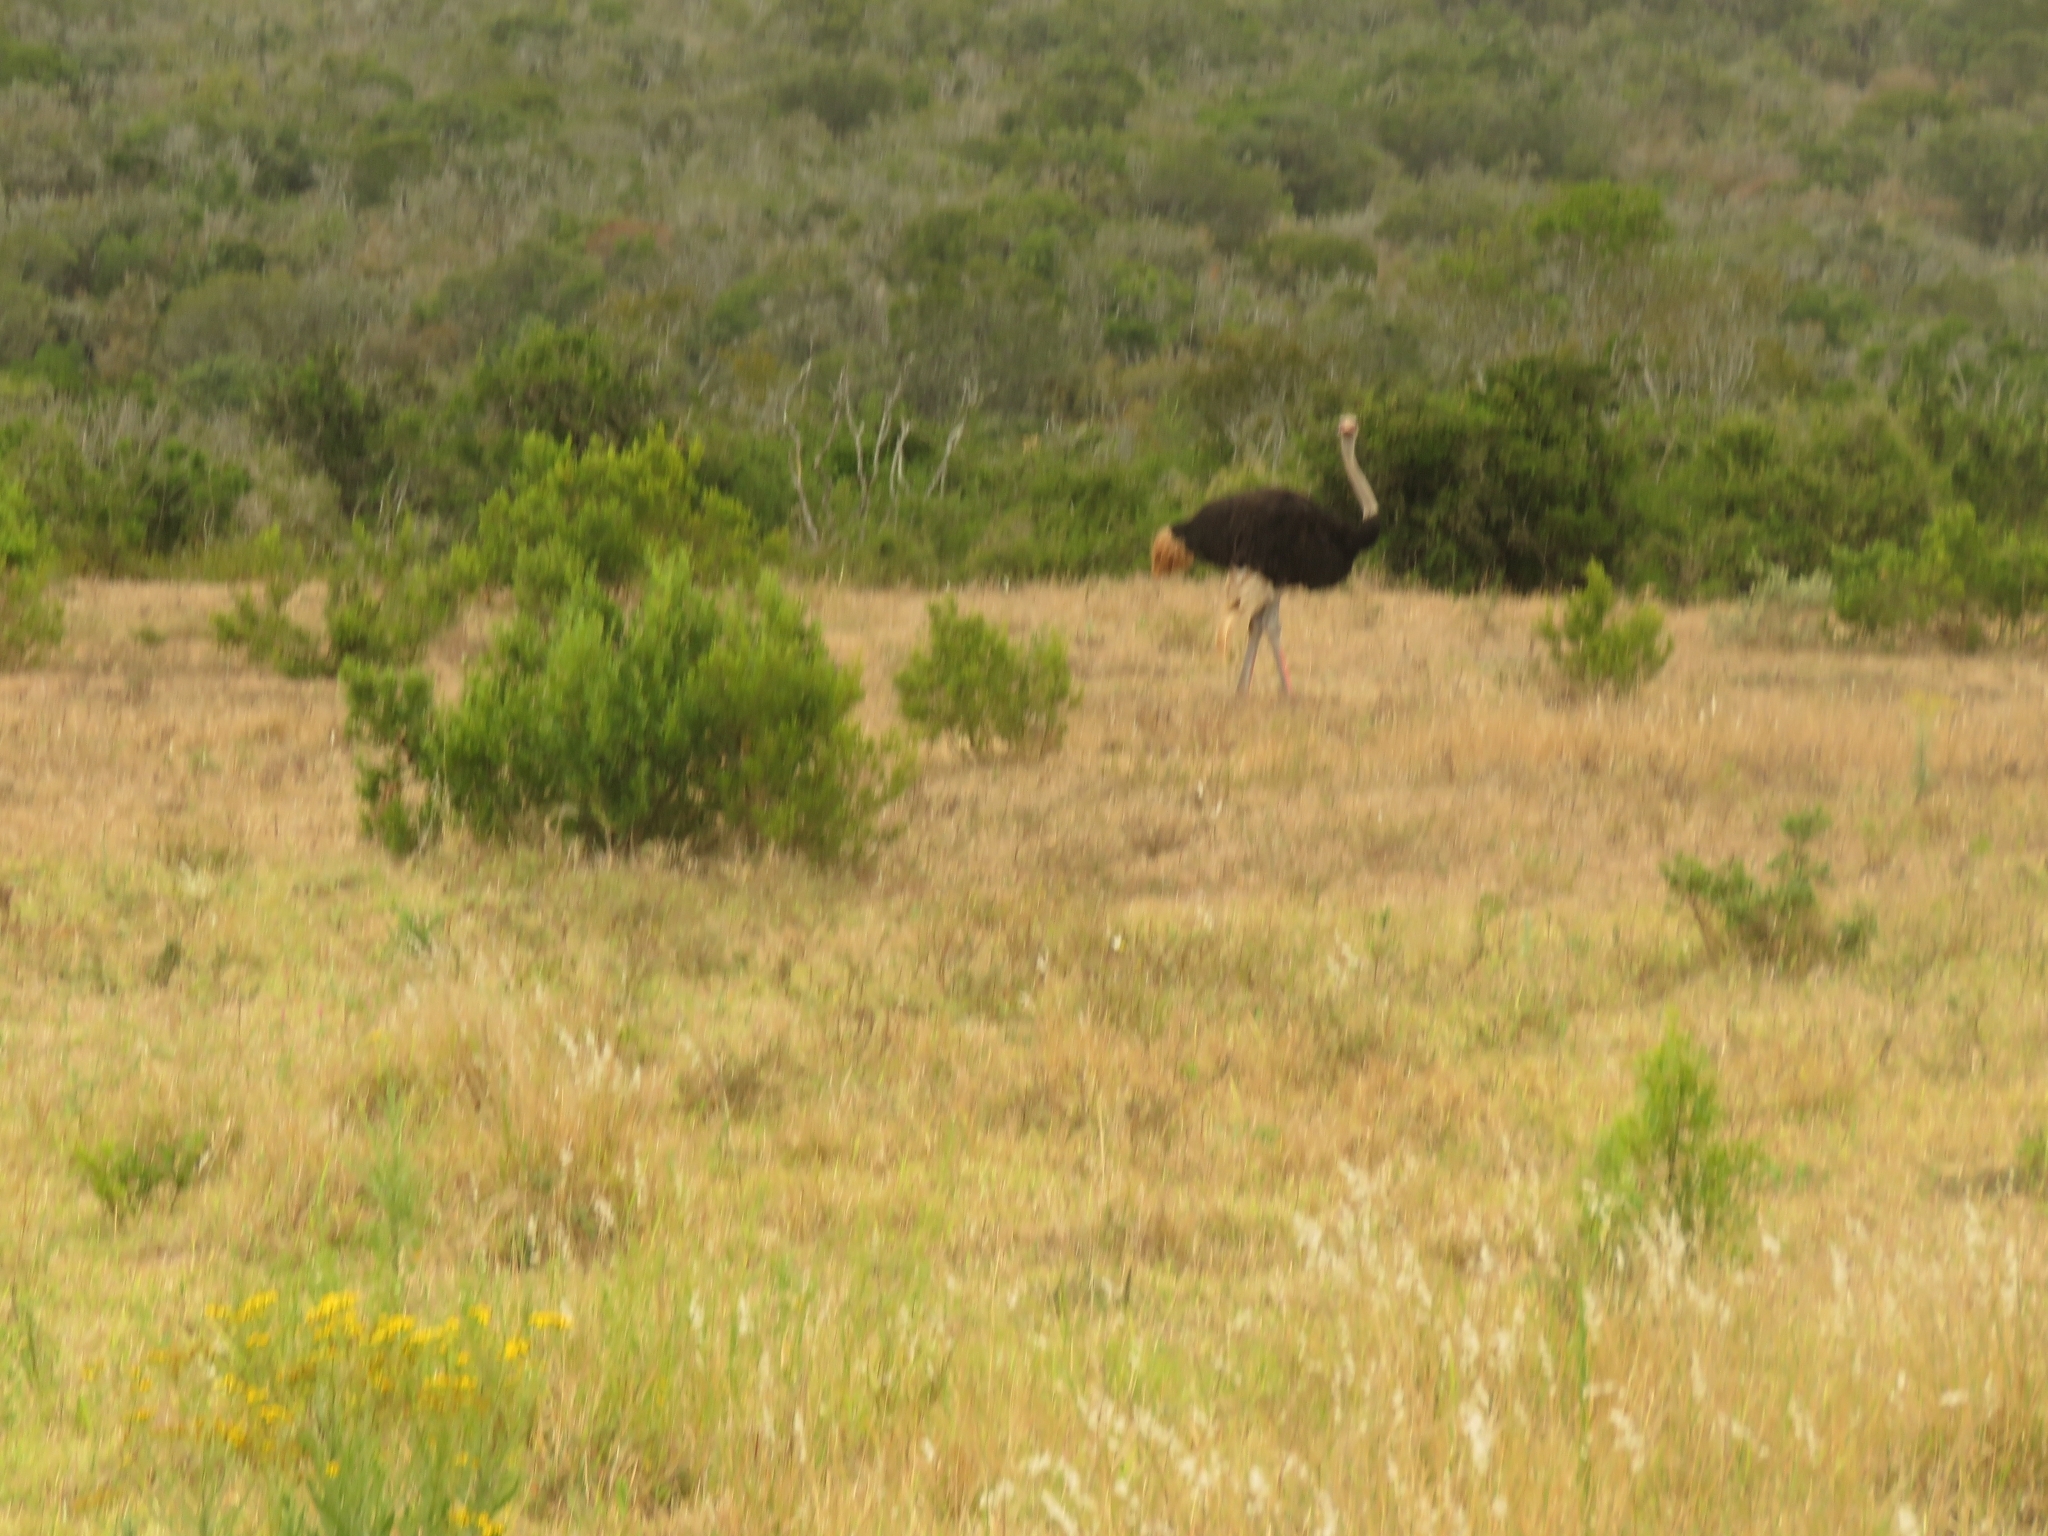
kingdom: Animalia
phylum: Chordata
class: Aves
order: Struthioniformes
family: Struthionidae
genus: Struthio
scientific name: Struthio camelus
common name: Common ostrich
